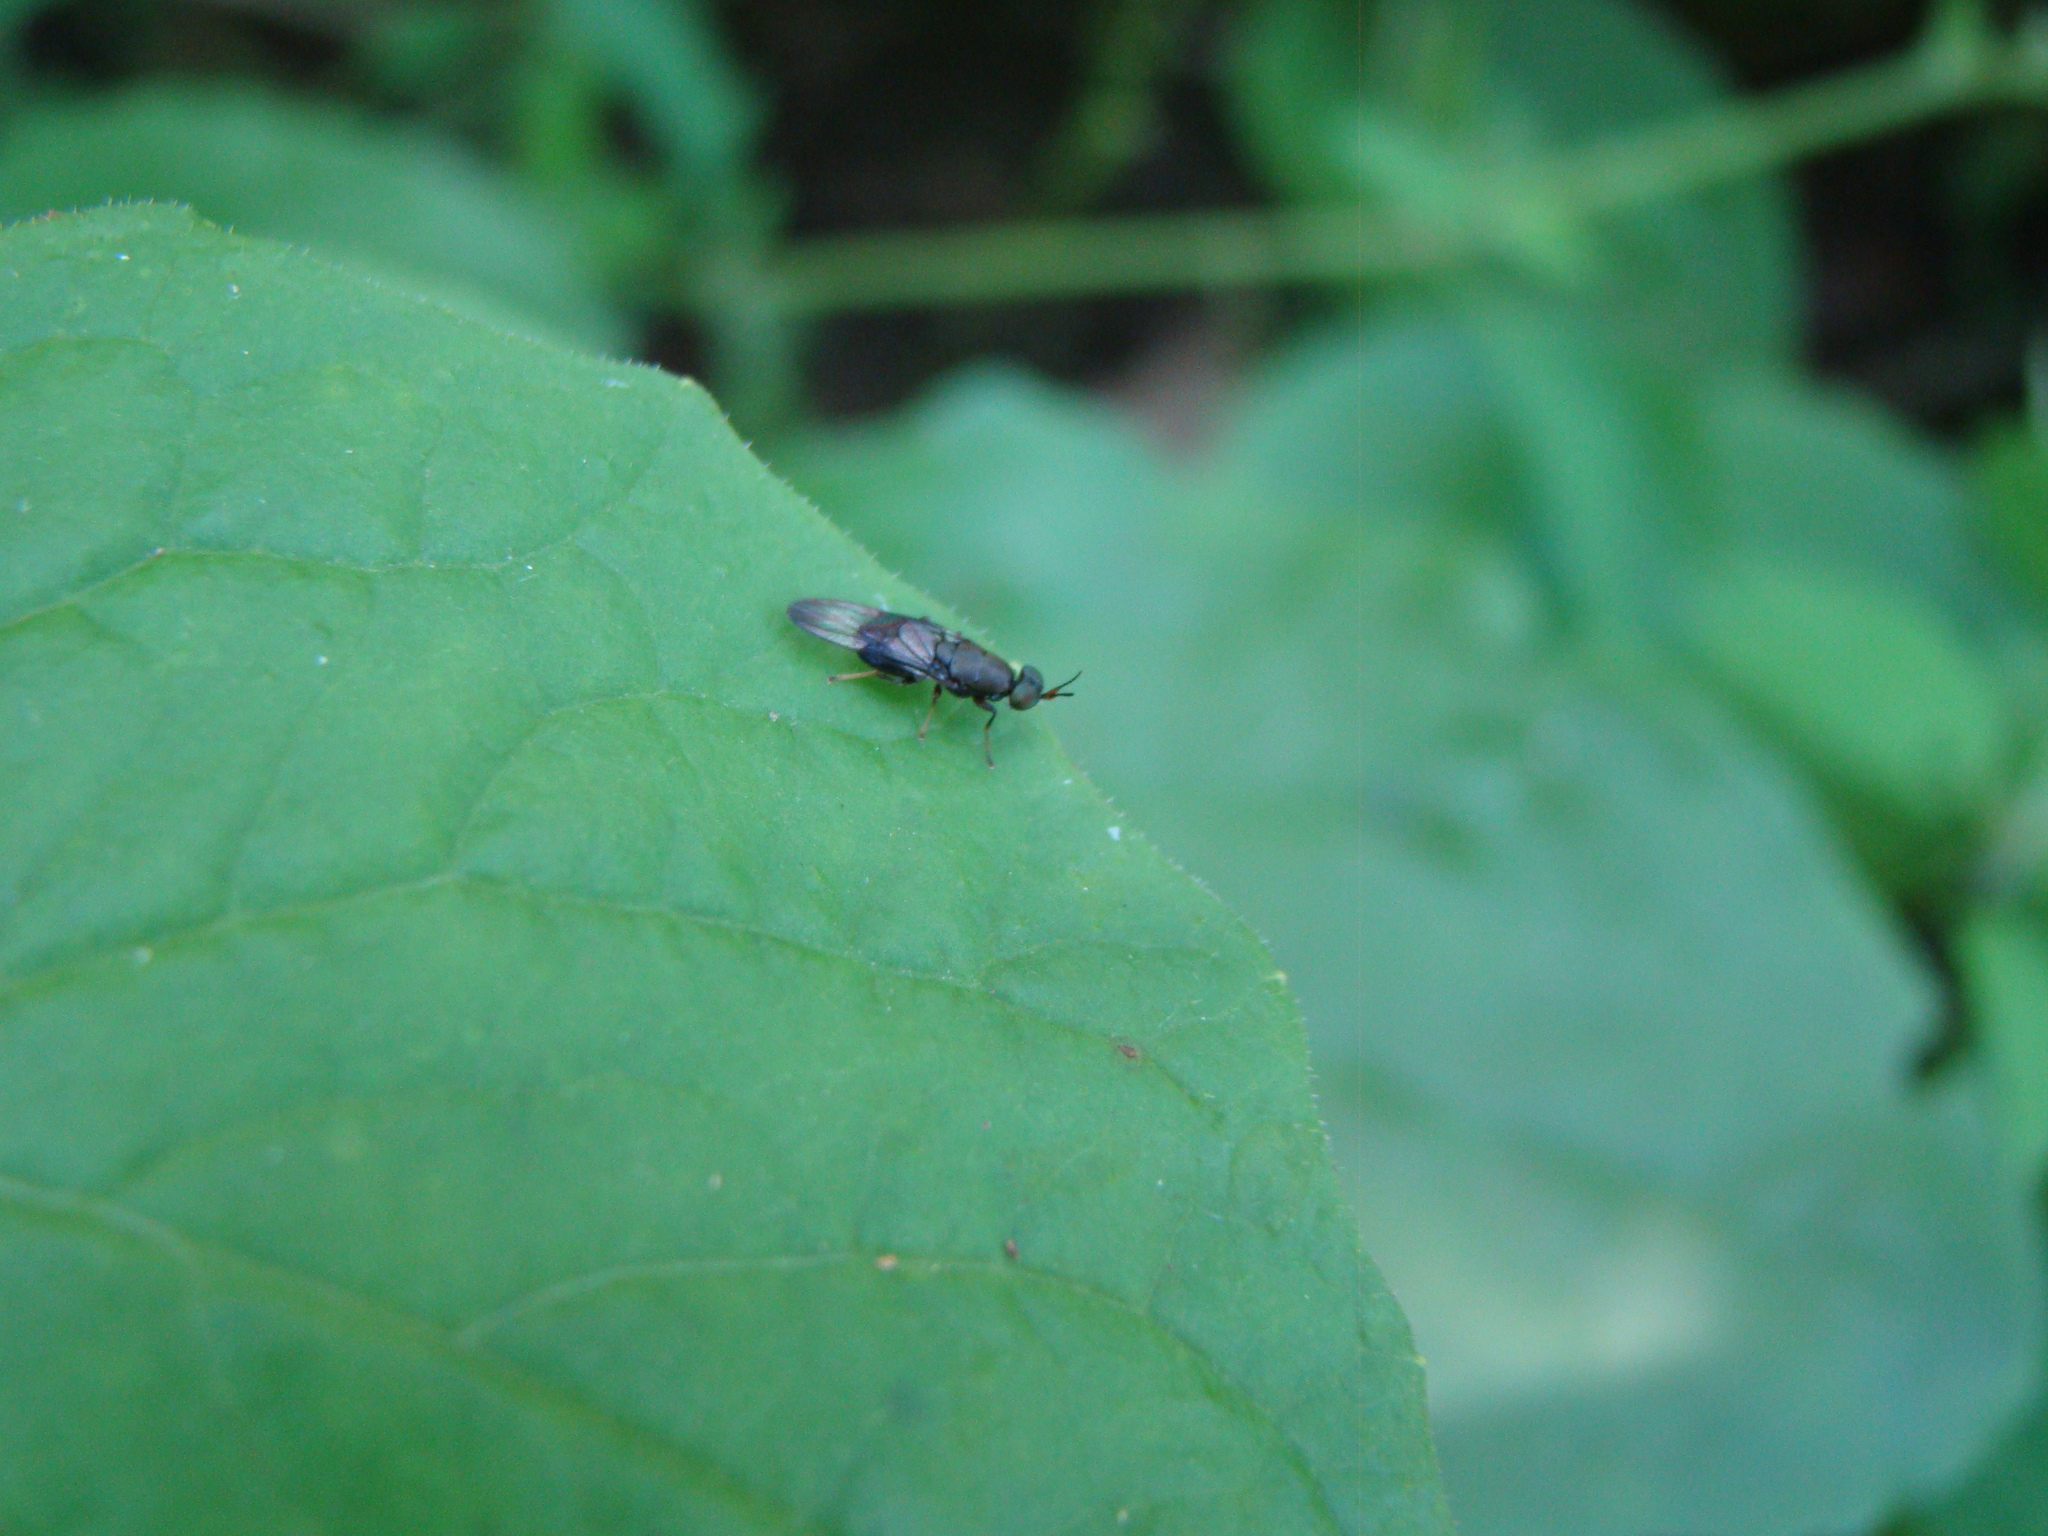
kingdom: Animalia
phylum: Arthropoda
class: Insecta
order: Diptera
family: Stratiomyidae
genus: Dysbiota
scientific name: Dysbiota peregrina
